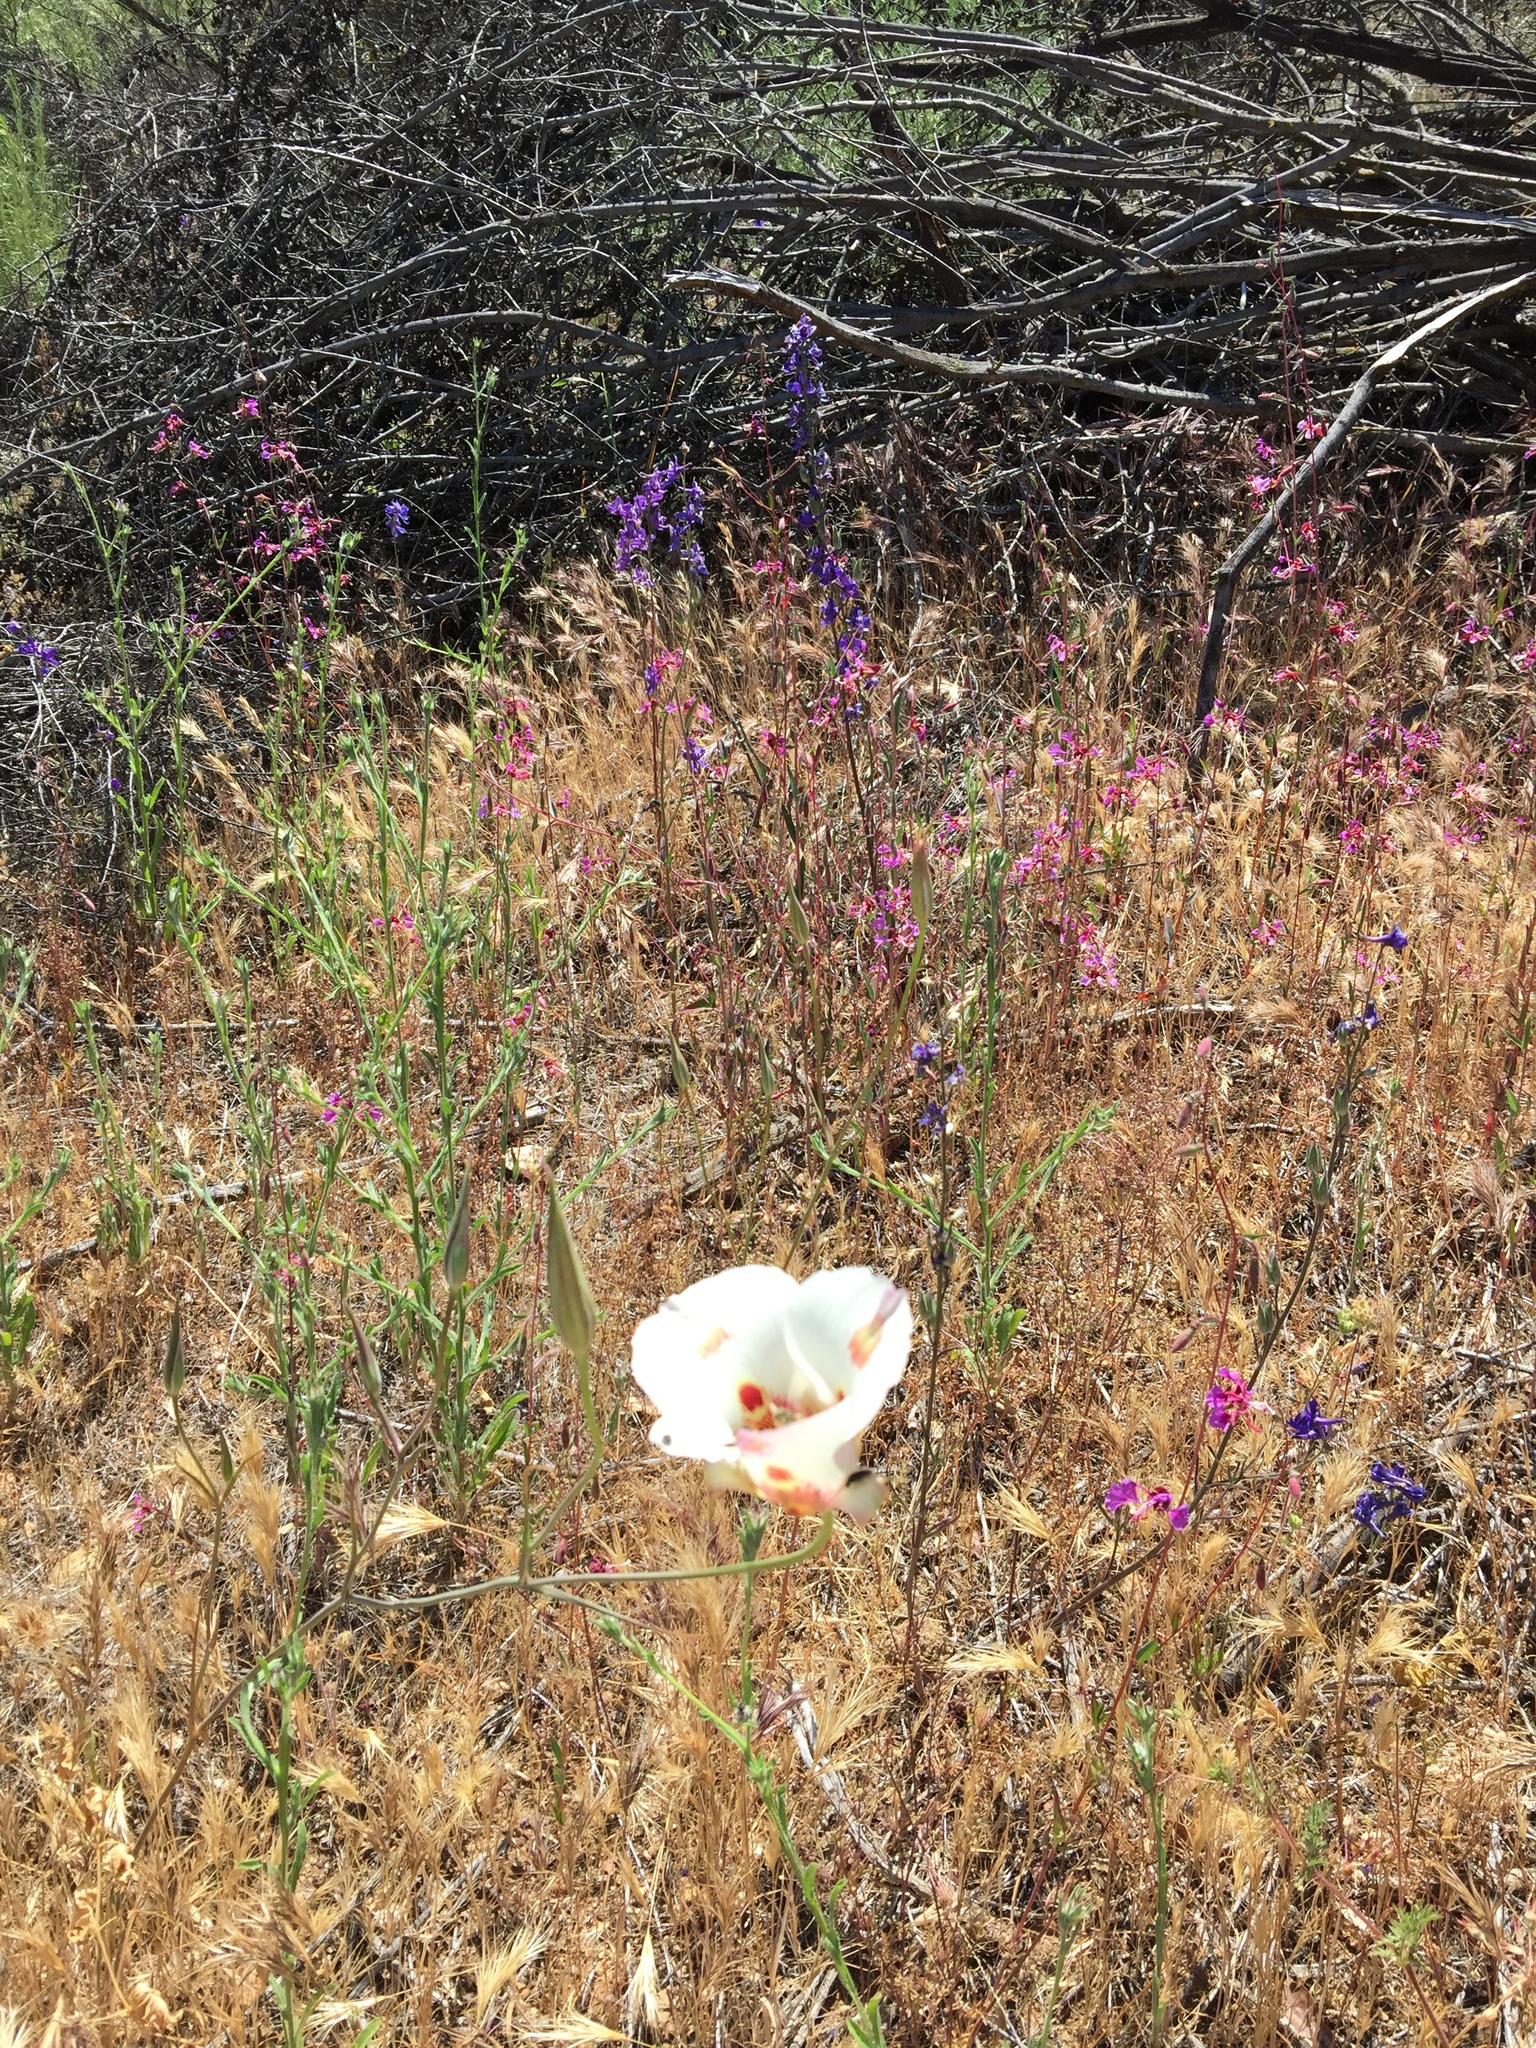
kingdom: Plantae
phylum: Tracheophyta
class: Liliopsida
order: Liliales
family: Liliaceae
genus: Calochortus
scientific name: Calochortus venustus
